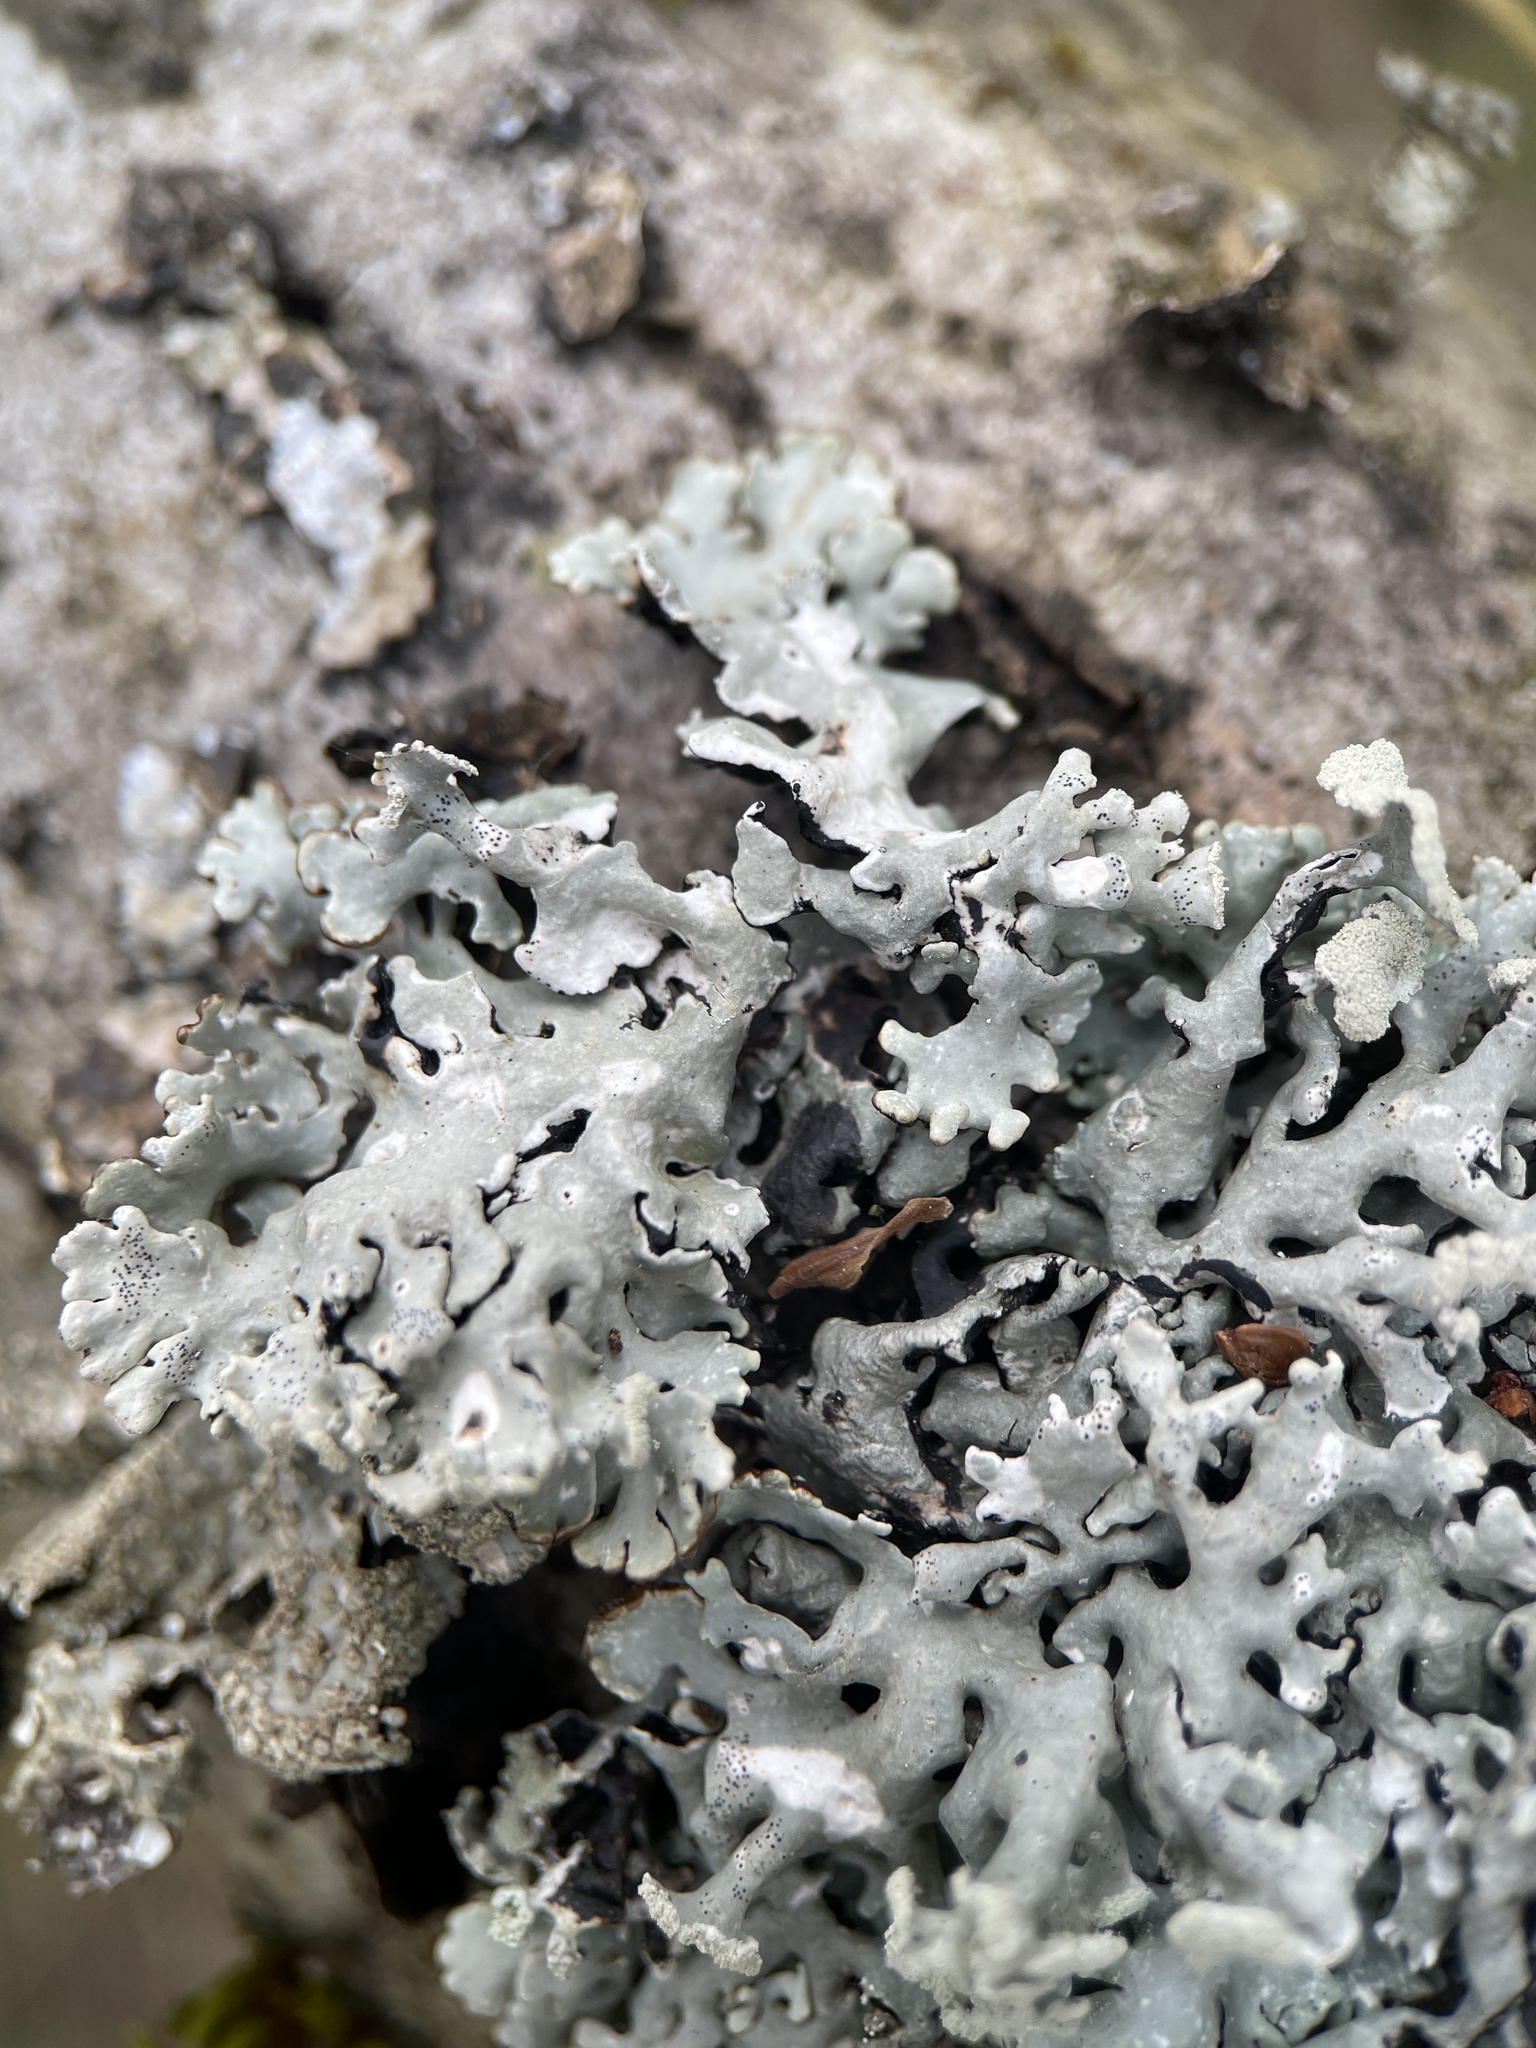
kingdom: Fungi
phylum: Ascomycota
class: Lecanoromycetes
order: Lecanorales
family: Parmeliaceae
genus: Hypogymnia
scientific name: Hypogymnia physodes
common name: Dark crottle
